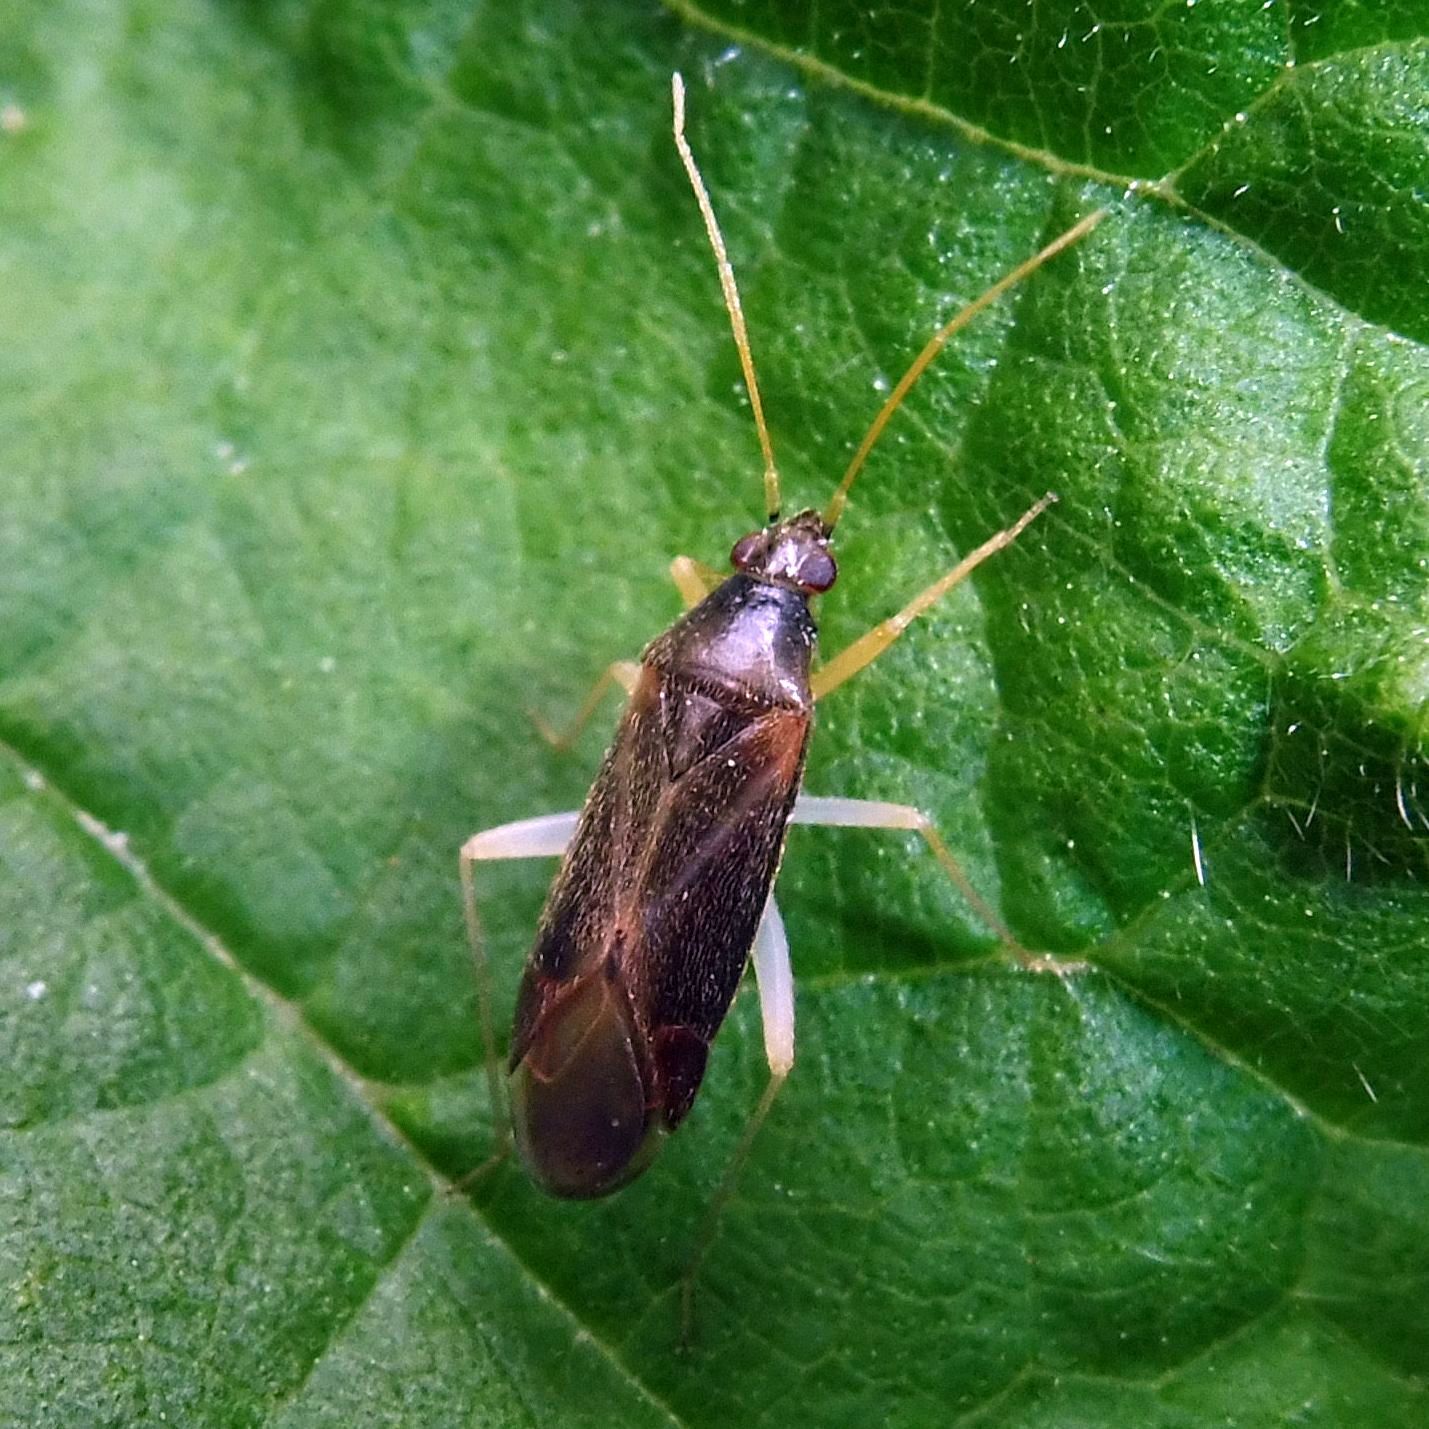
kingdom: Animalia
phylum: Arthropoda
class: Insecta
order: Hemiptera
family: Miridae
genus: Phylus
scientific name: Phylus coryli
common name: Plant bug
